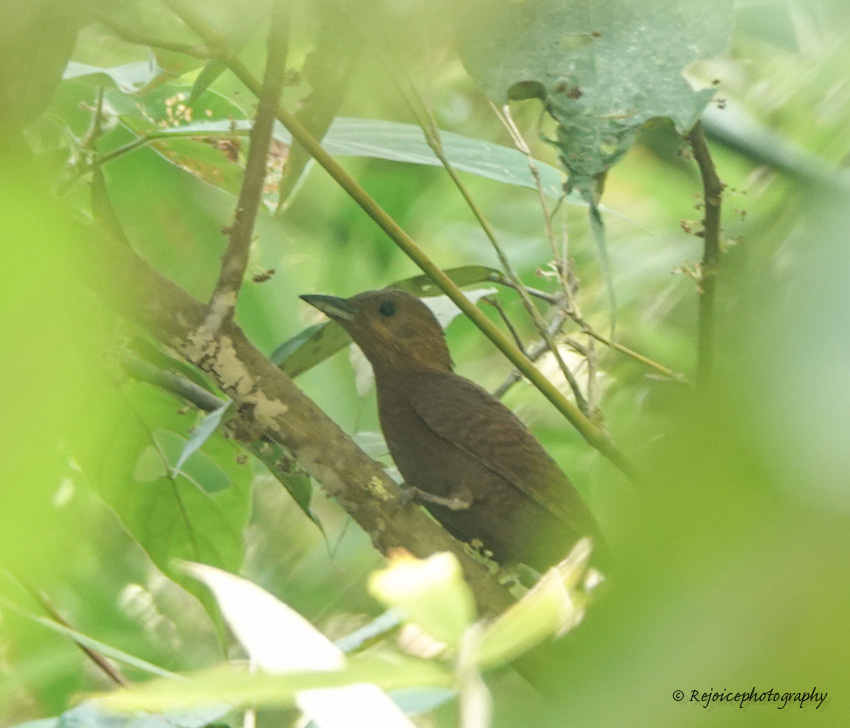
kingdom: Animalia
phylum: Chordata
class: Aves
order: Piciformes
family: Picidae
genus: Micropternus
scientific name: Micropternus brachyurus
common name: Rufous woodpecker
